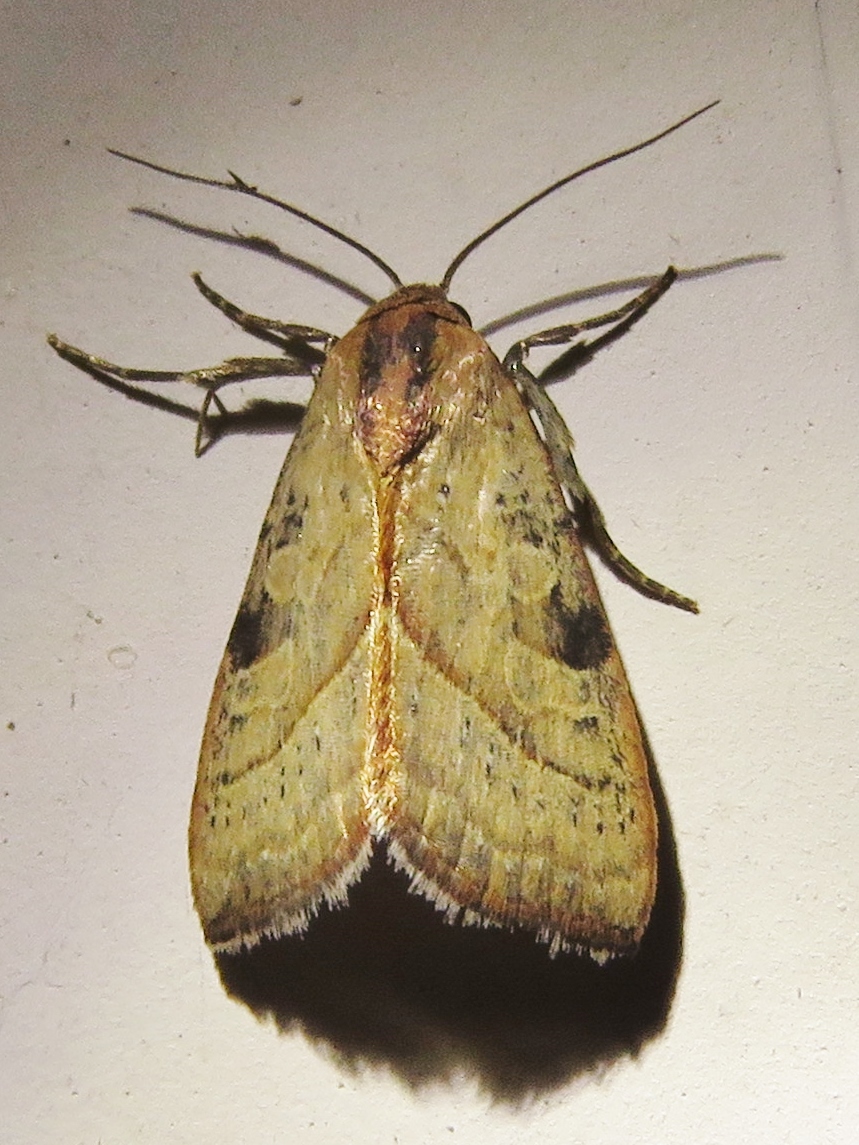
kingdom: Animalia
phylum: Arthropoda
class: Insecta
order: Lepidoptera
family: Noctuidae
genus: Galgula
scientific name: Galgula partita
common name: Wedgeling
